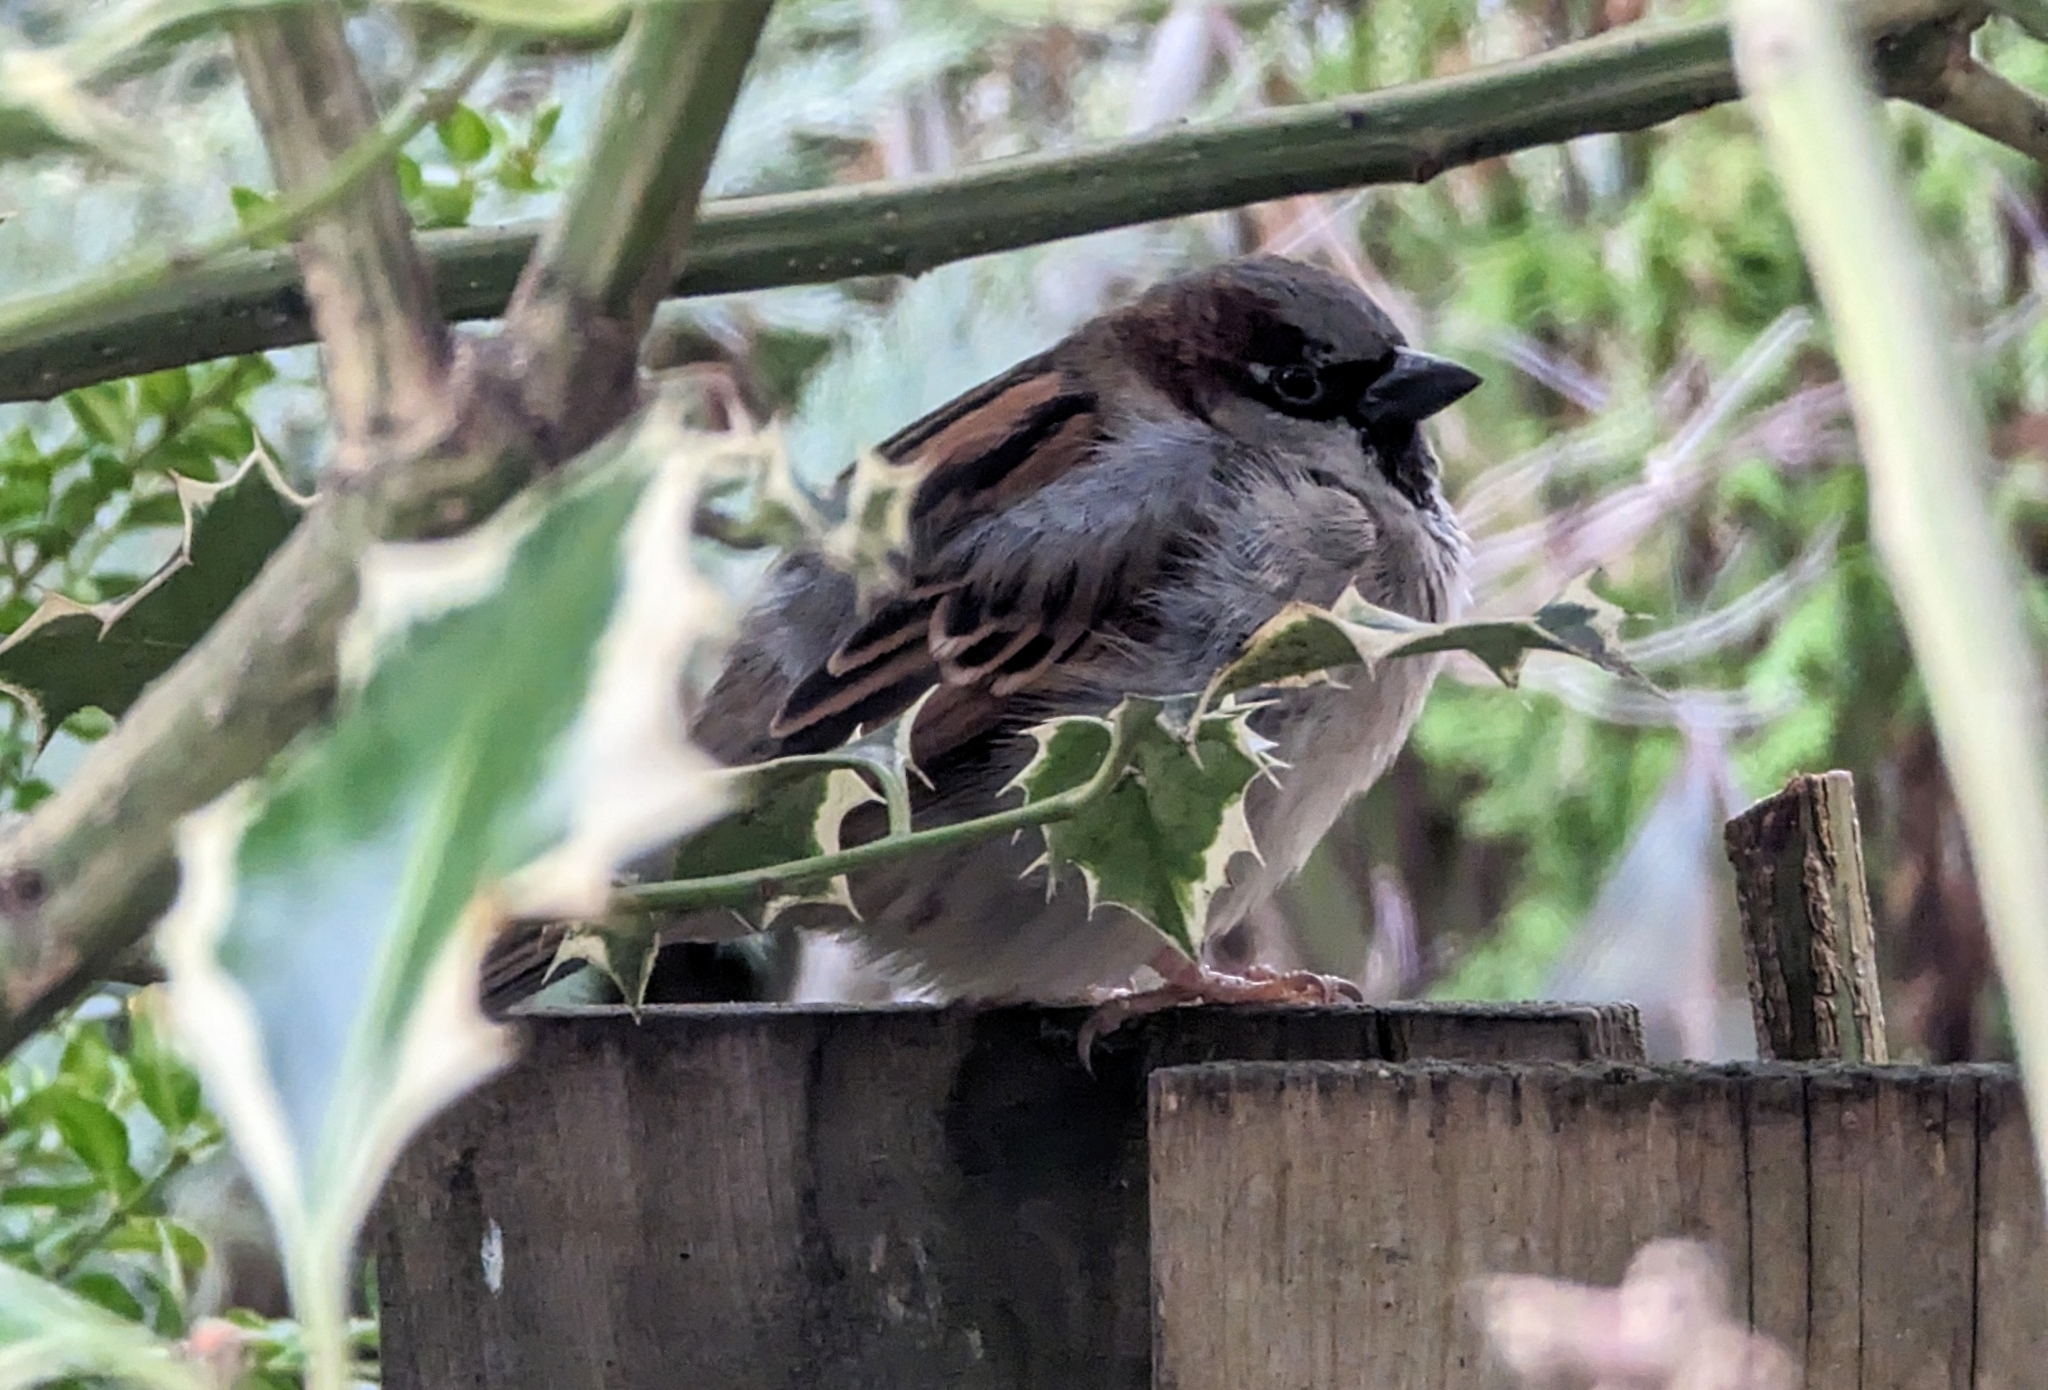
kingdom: Animalia
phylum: Chordata
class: Aves
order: Passeriformes
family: Passeridae
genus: Passer
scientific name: Passer domesticus
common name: House sparrow
